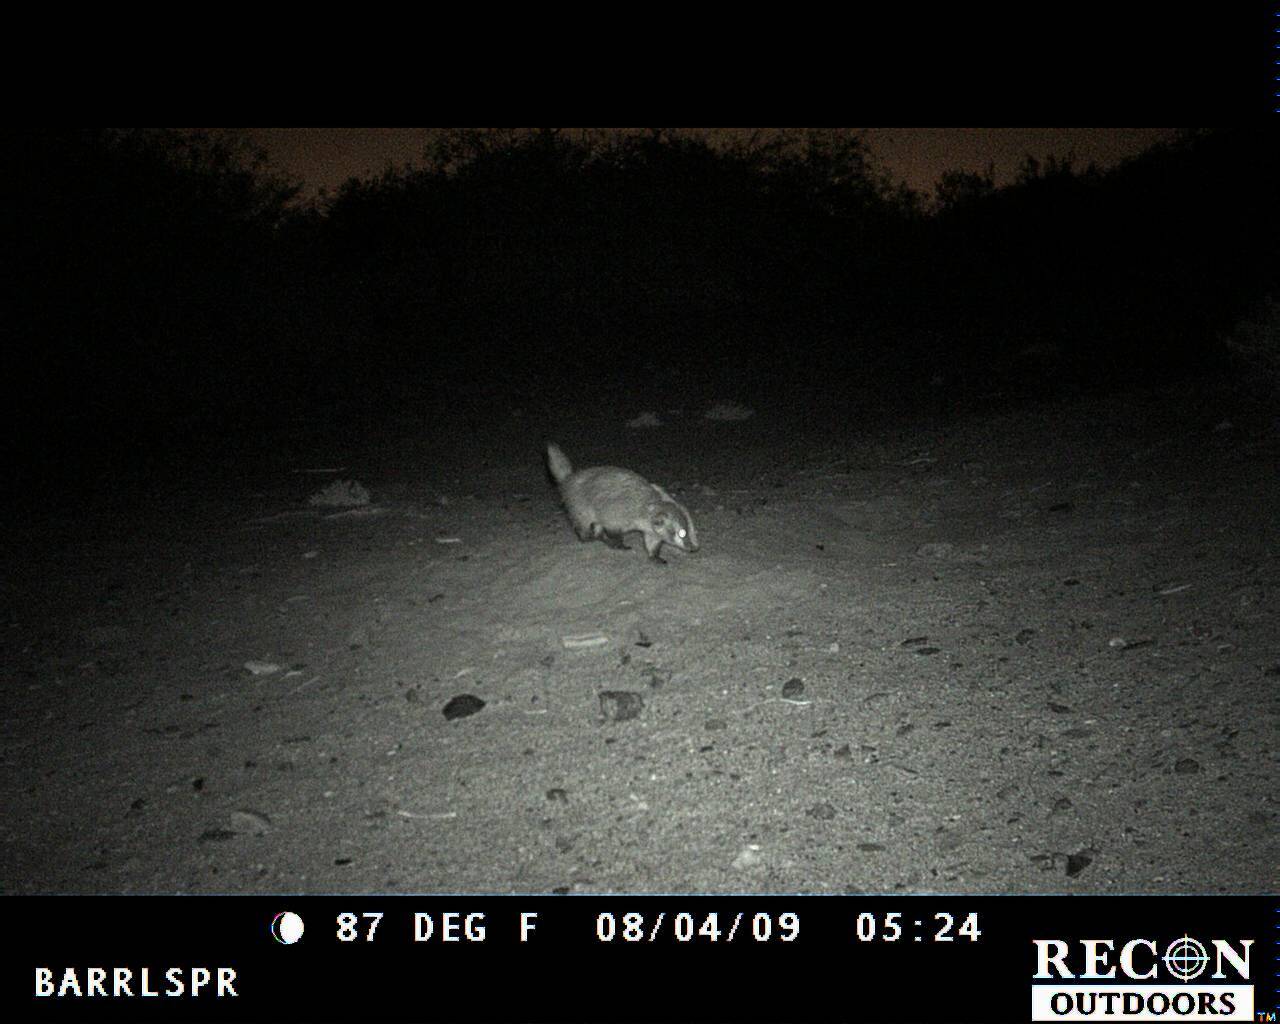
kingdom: Animalia
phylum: Chordata
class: Mammalia
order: Carnivora
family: Mustelidae
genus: Taxidea
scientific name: Taxidea taxus
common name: American badger
